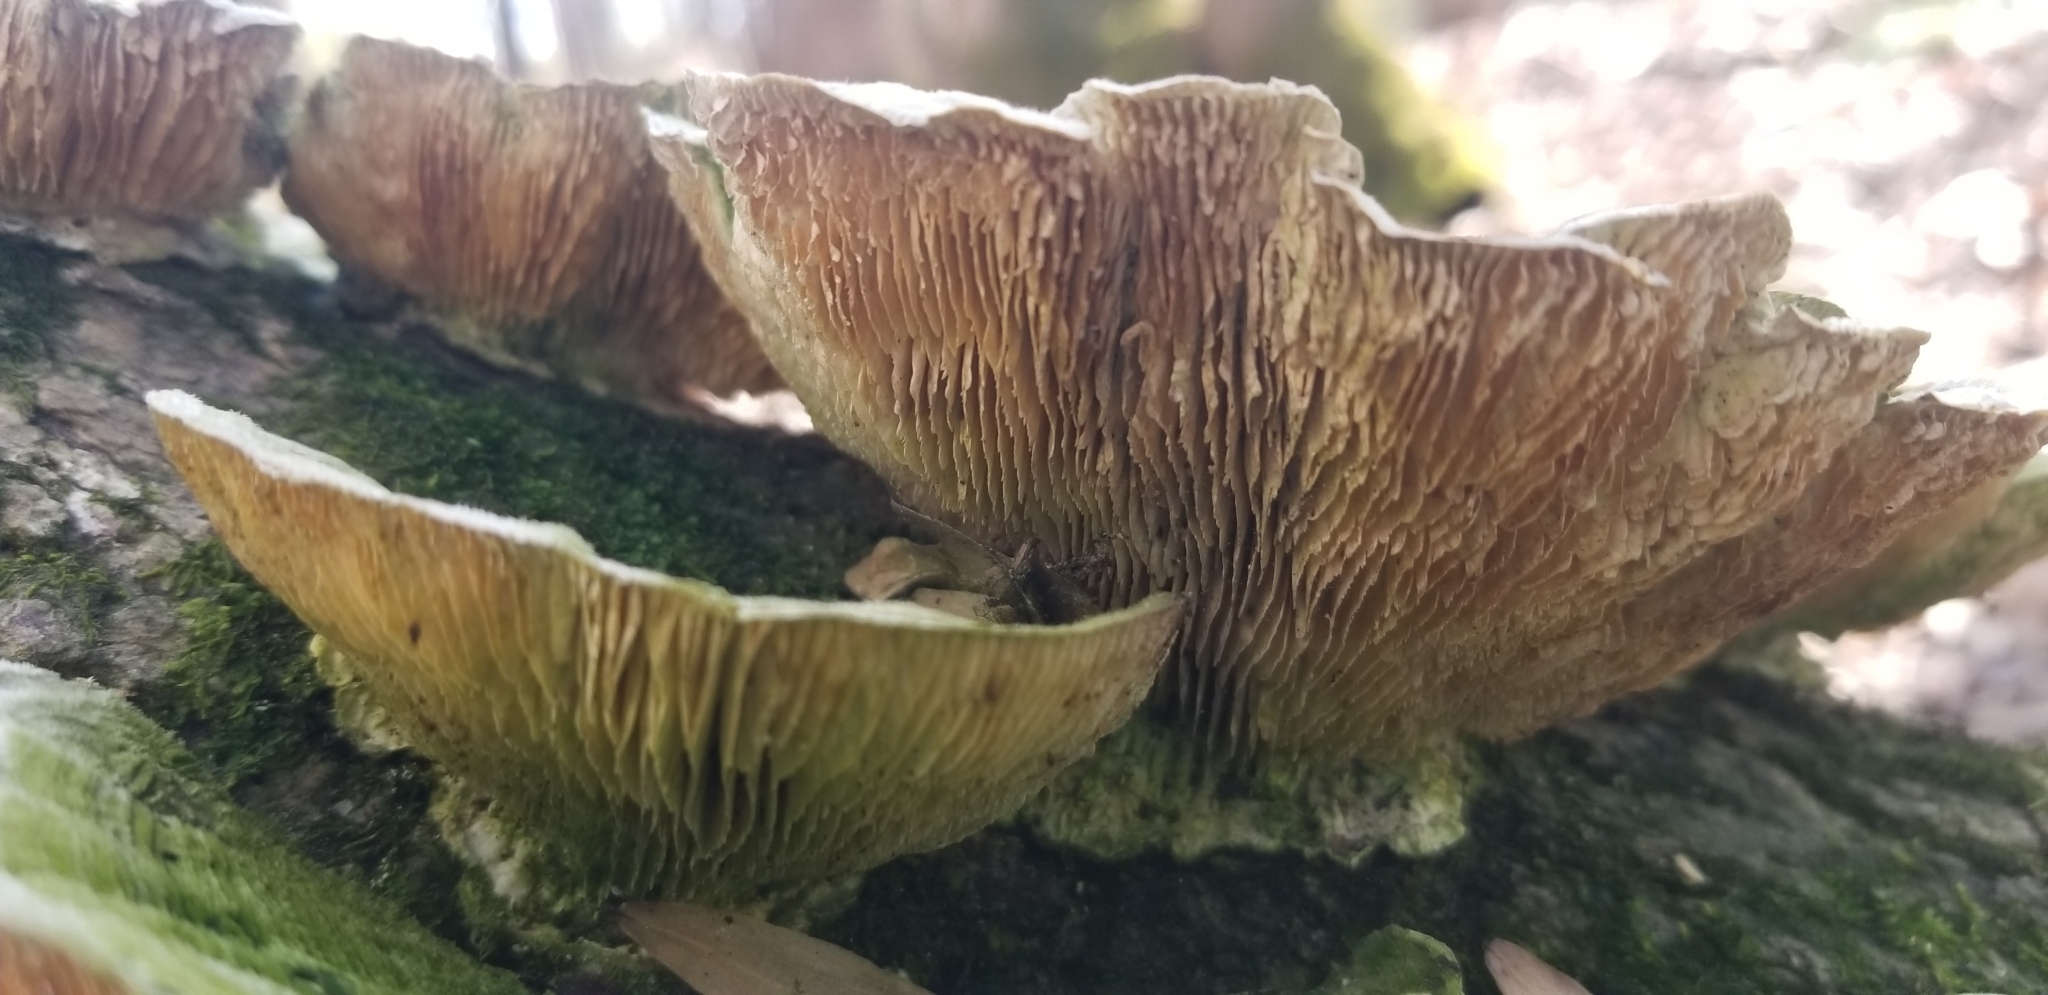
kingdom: Fungi
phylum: Basidiomycota
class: Agaricomycetes
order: Polyporales
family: Polyporaceae
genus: Lenzites
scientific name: Lenzites betulinus
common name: Birch mazegill
